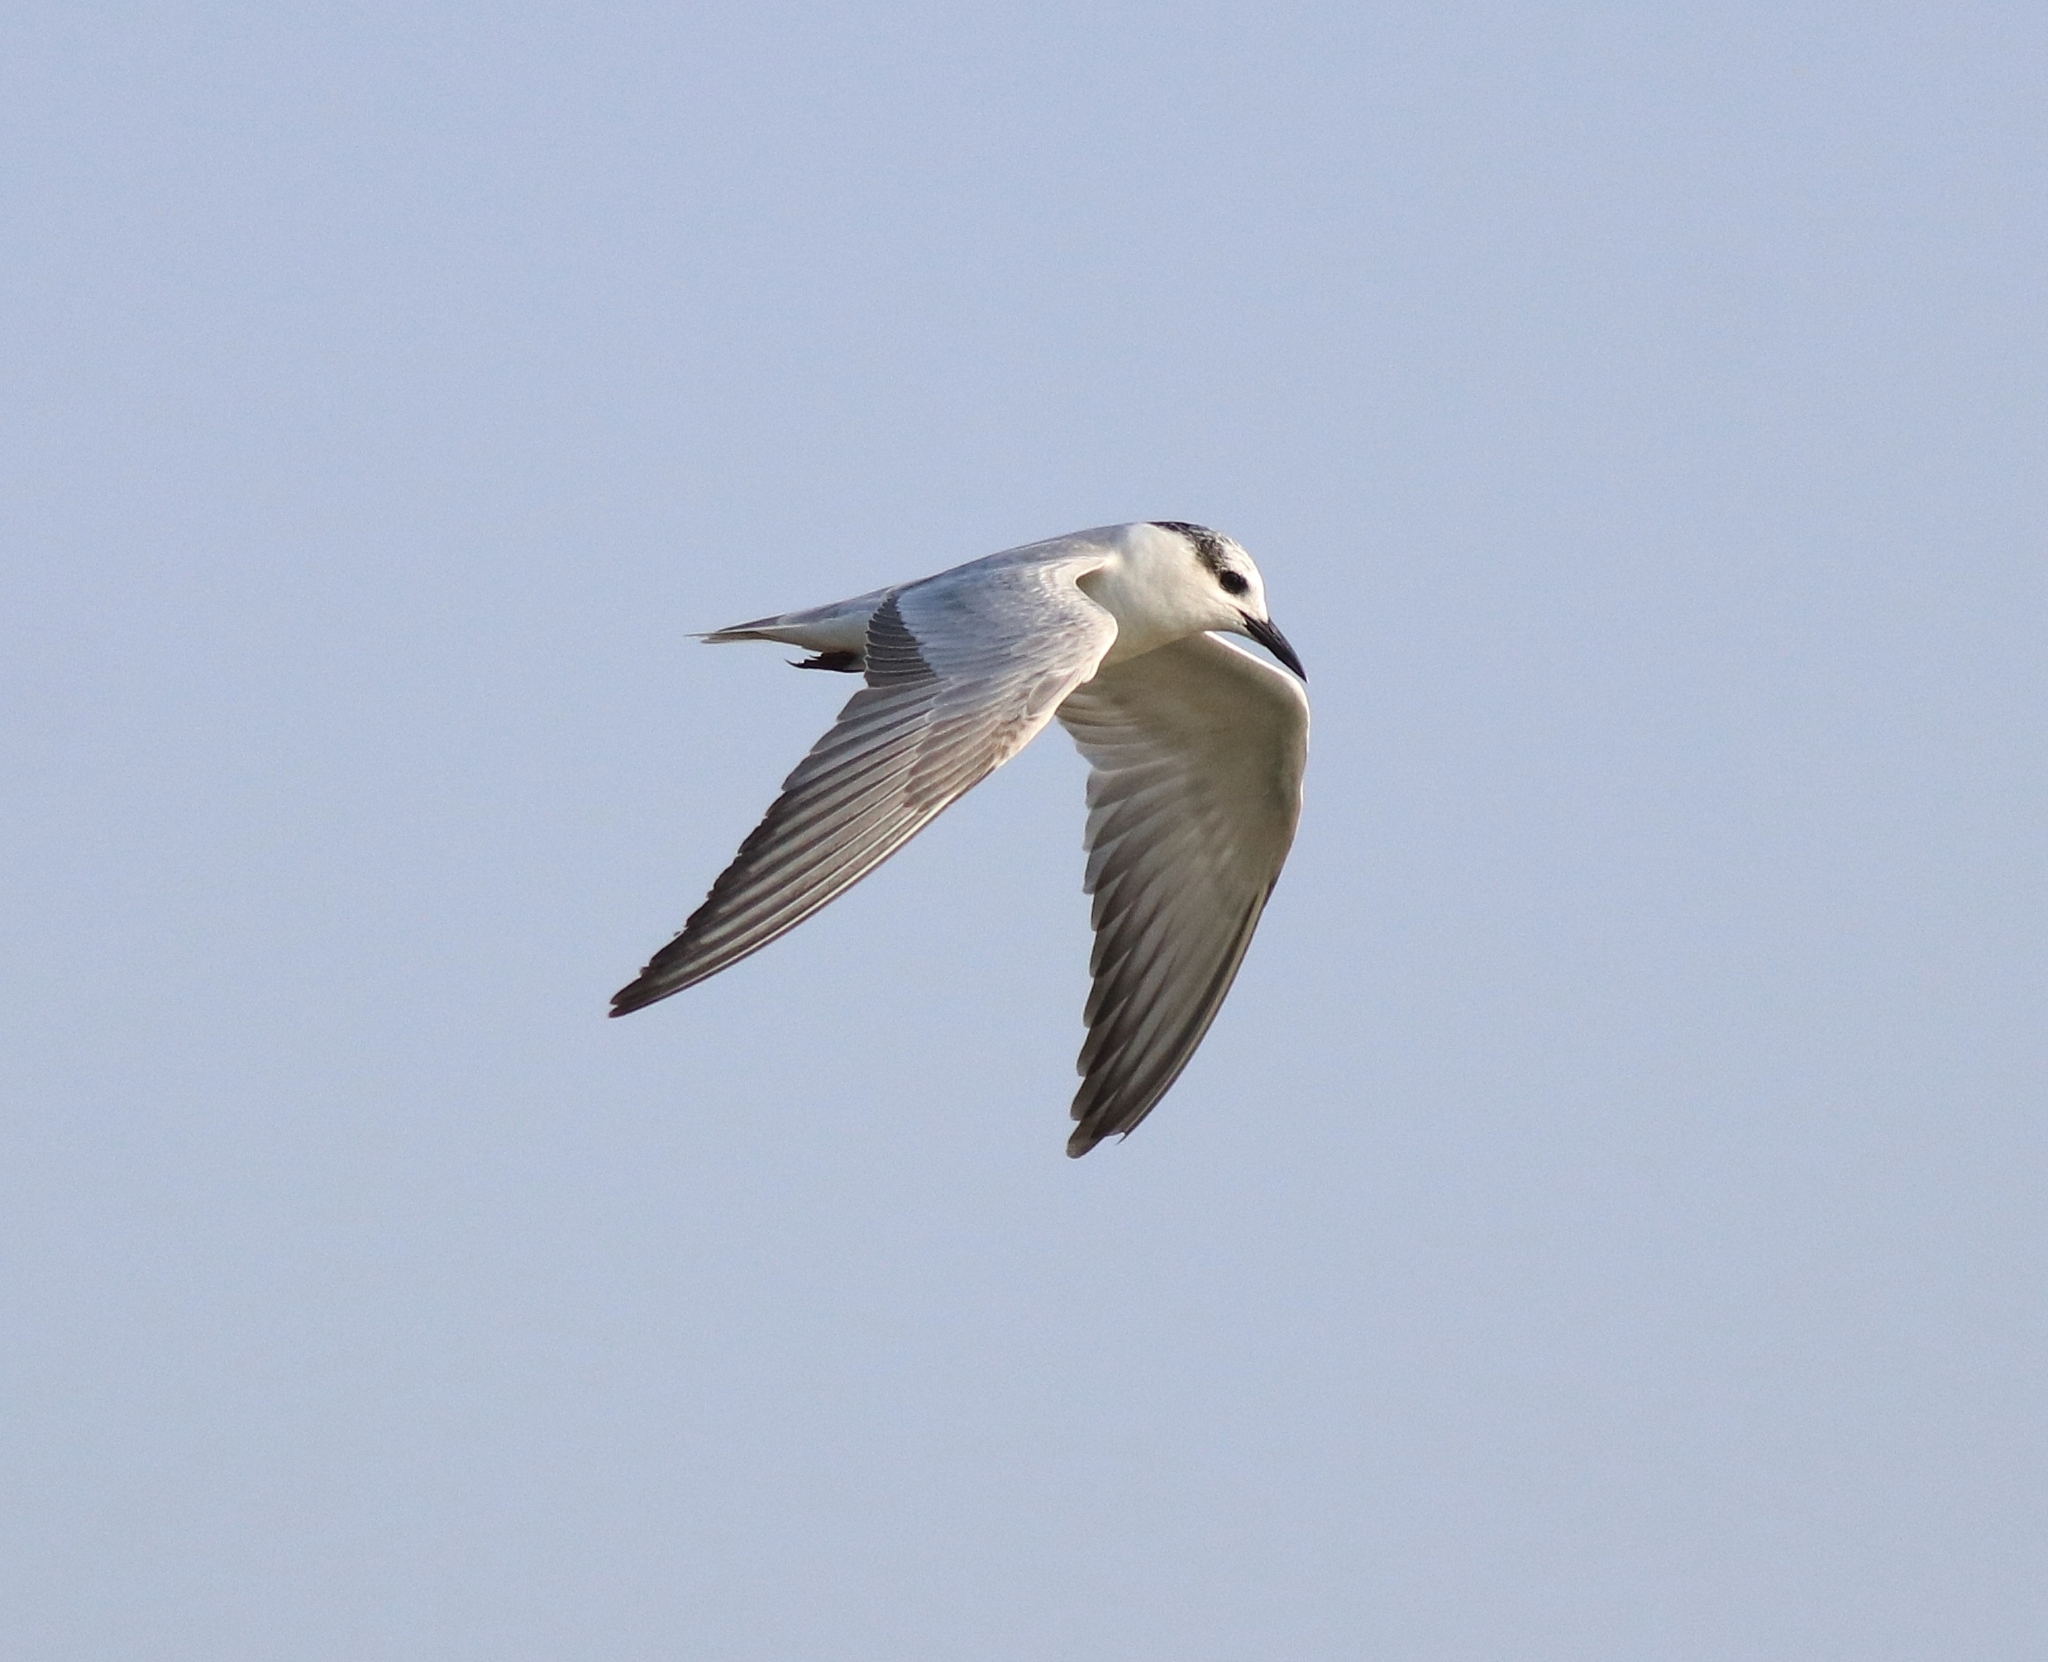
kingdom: Animalia
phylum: Chordata
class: Aves
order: Charadriiformes
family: Laridae
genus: Chlidonias
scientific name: Chlidonias hybrida
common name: Whiskered tern
